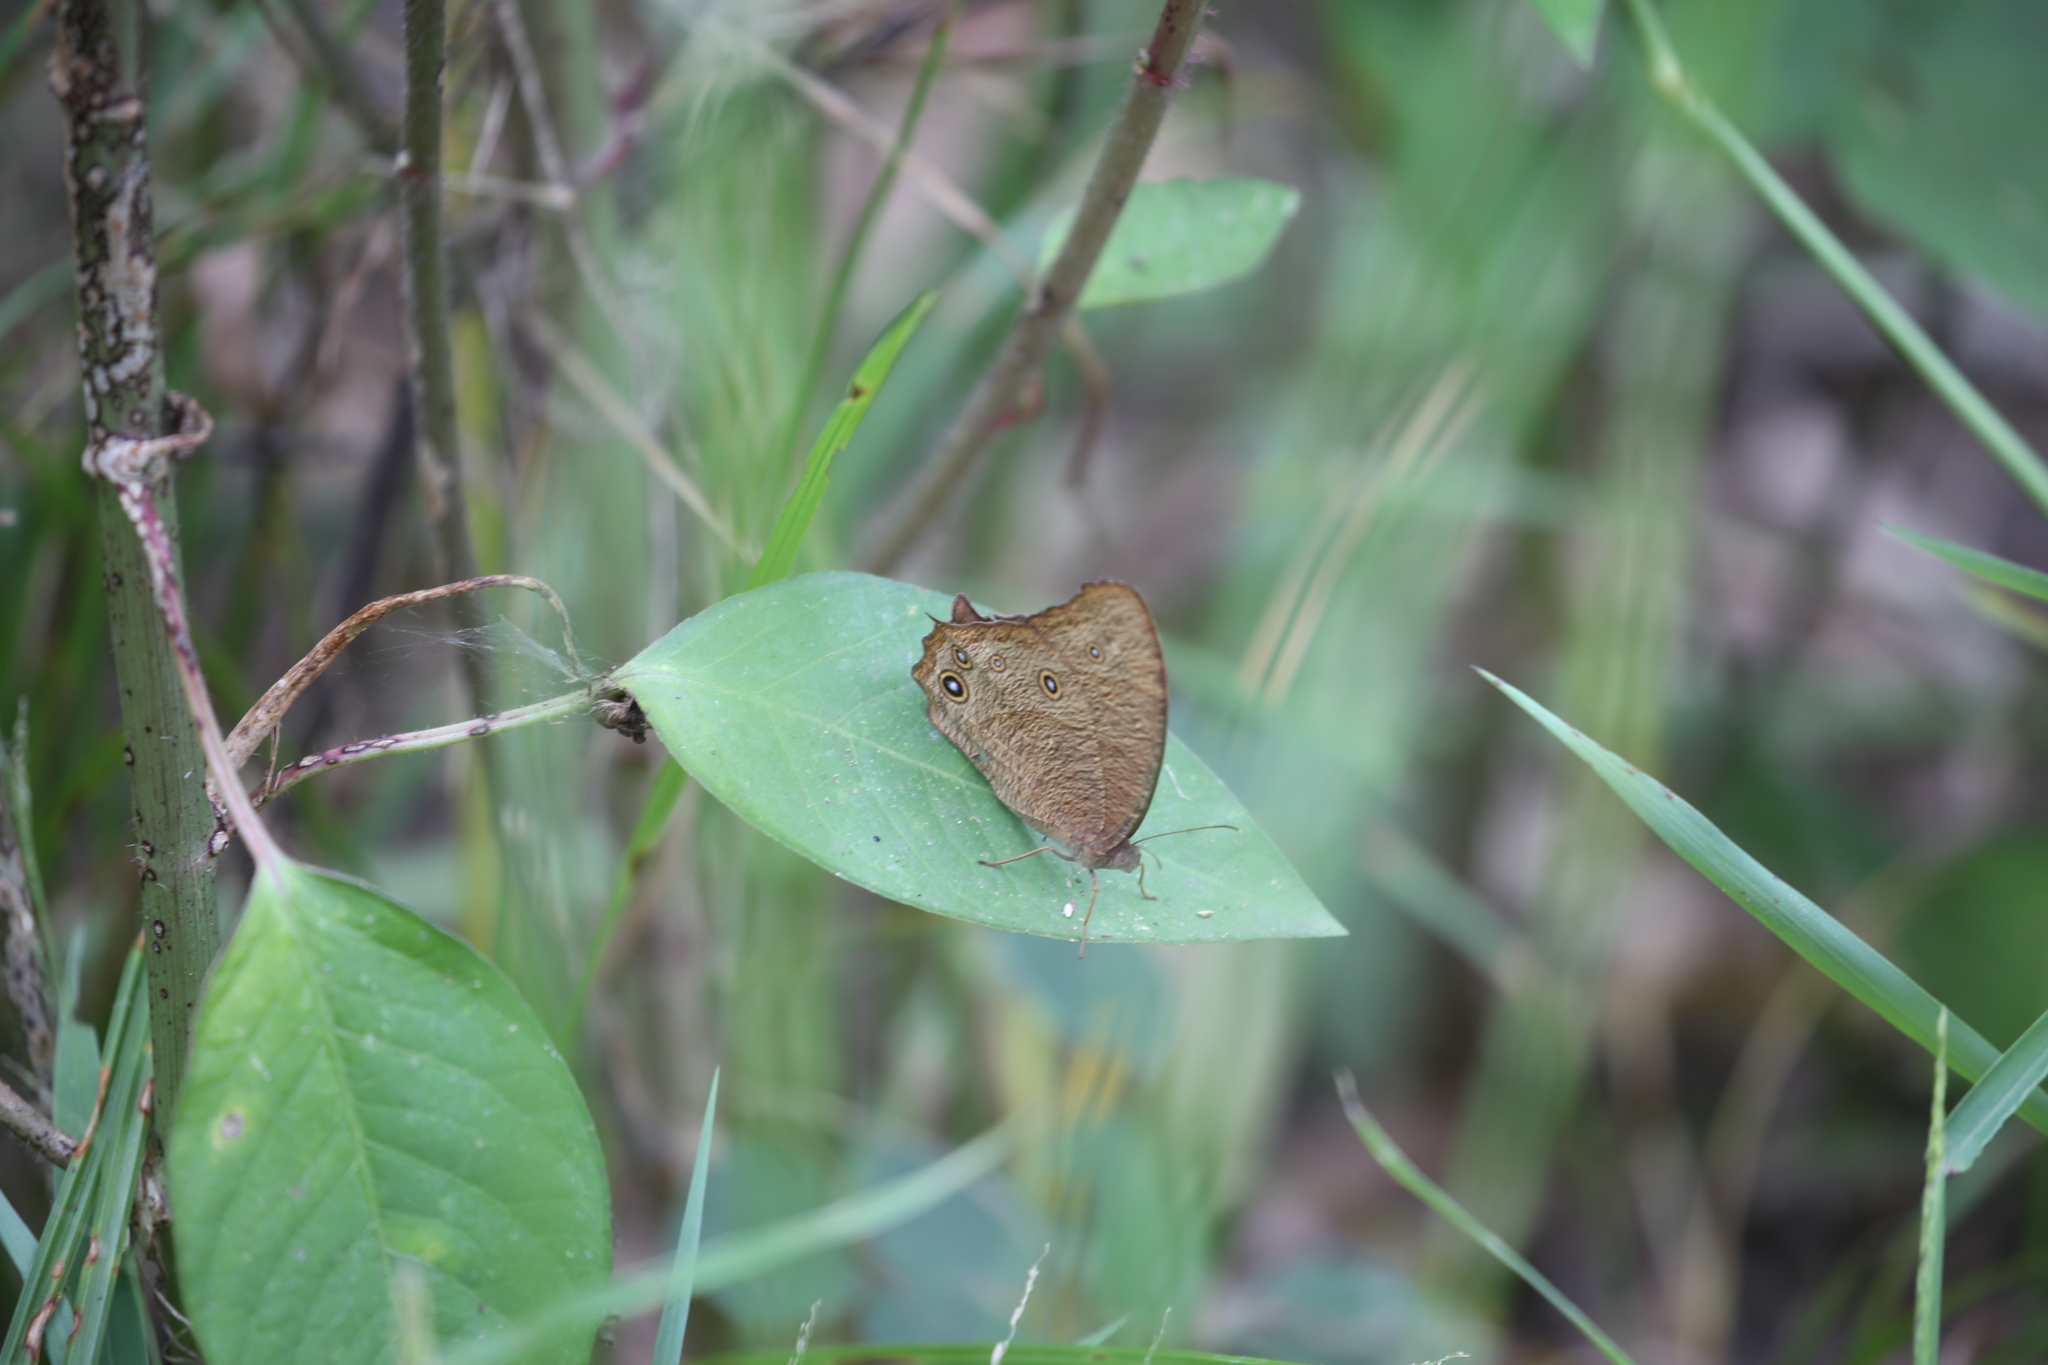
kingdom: Animalia
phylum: Arthropoda
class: Insecta
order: Lepidoptera
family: Nymphalidae
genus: Melanitis
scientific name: Melanitis leda
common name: Twilight brown
